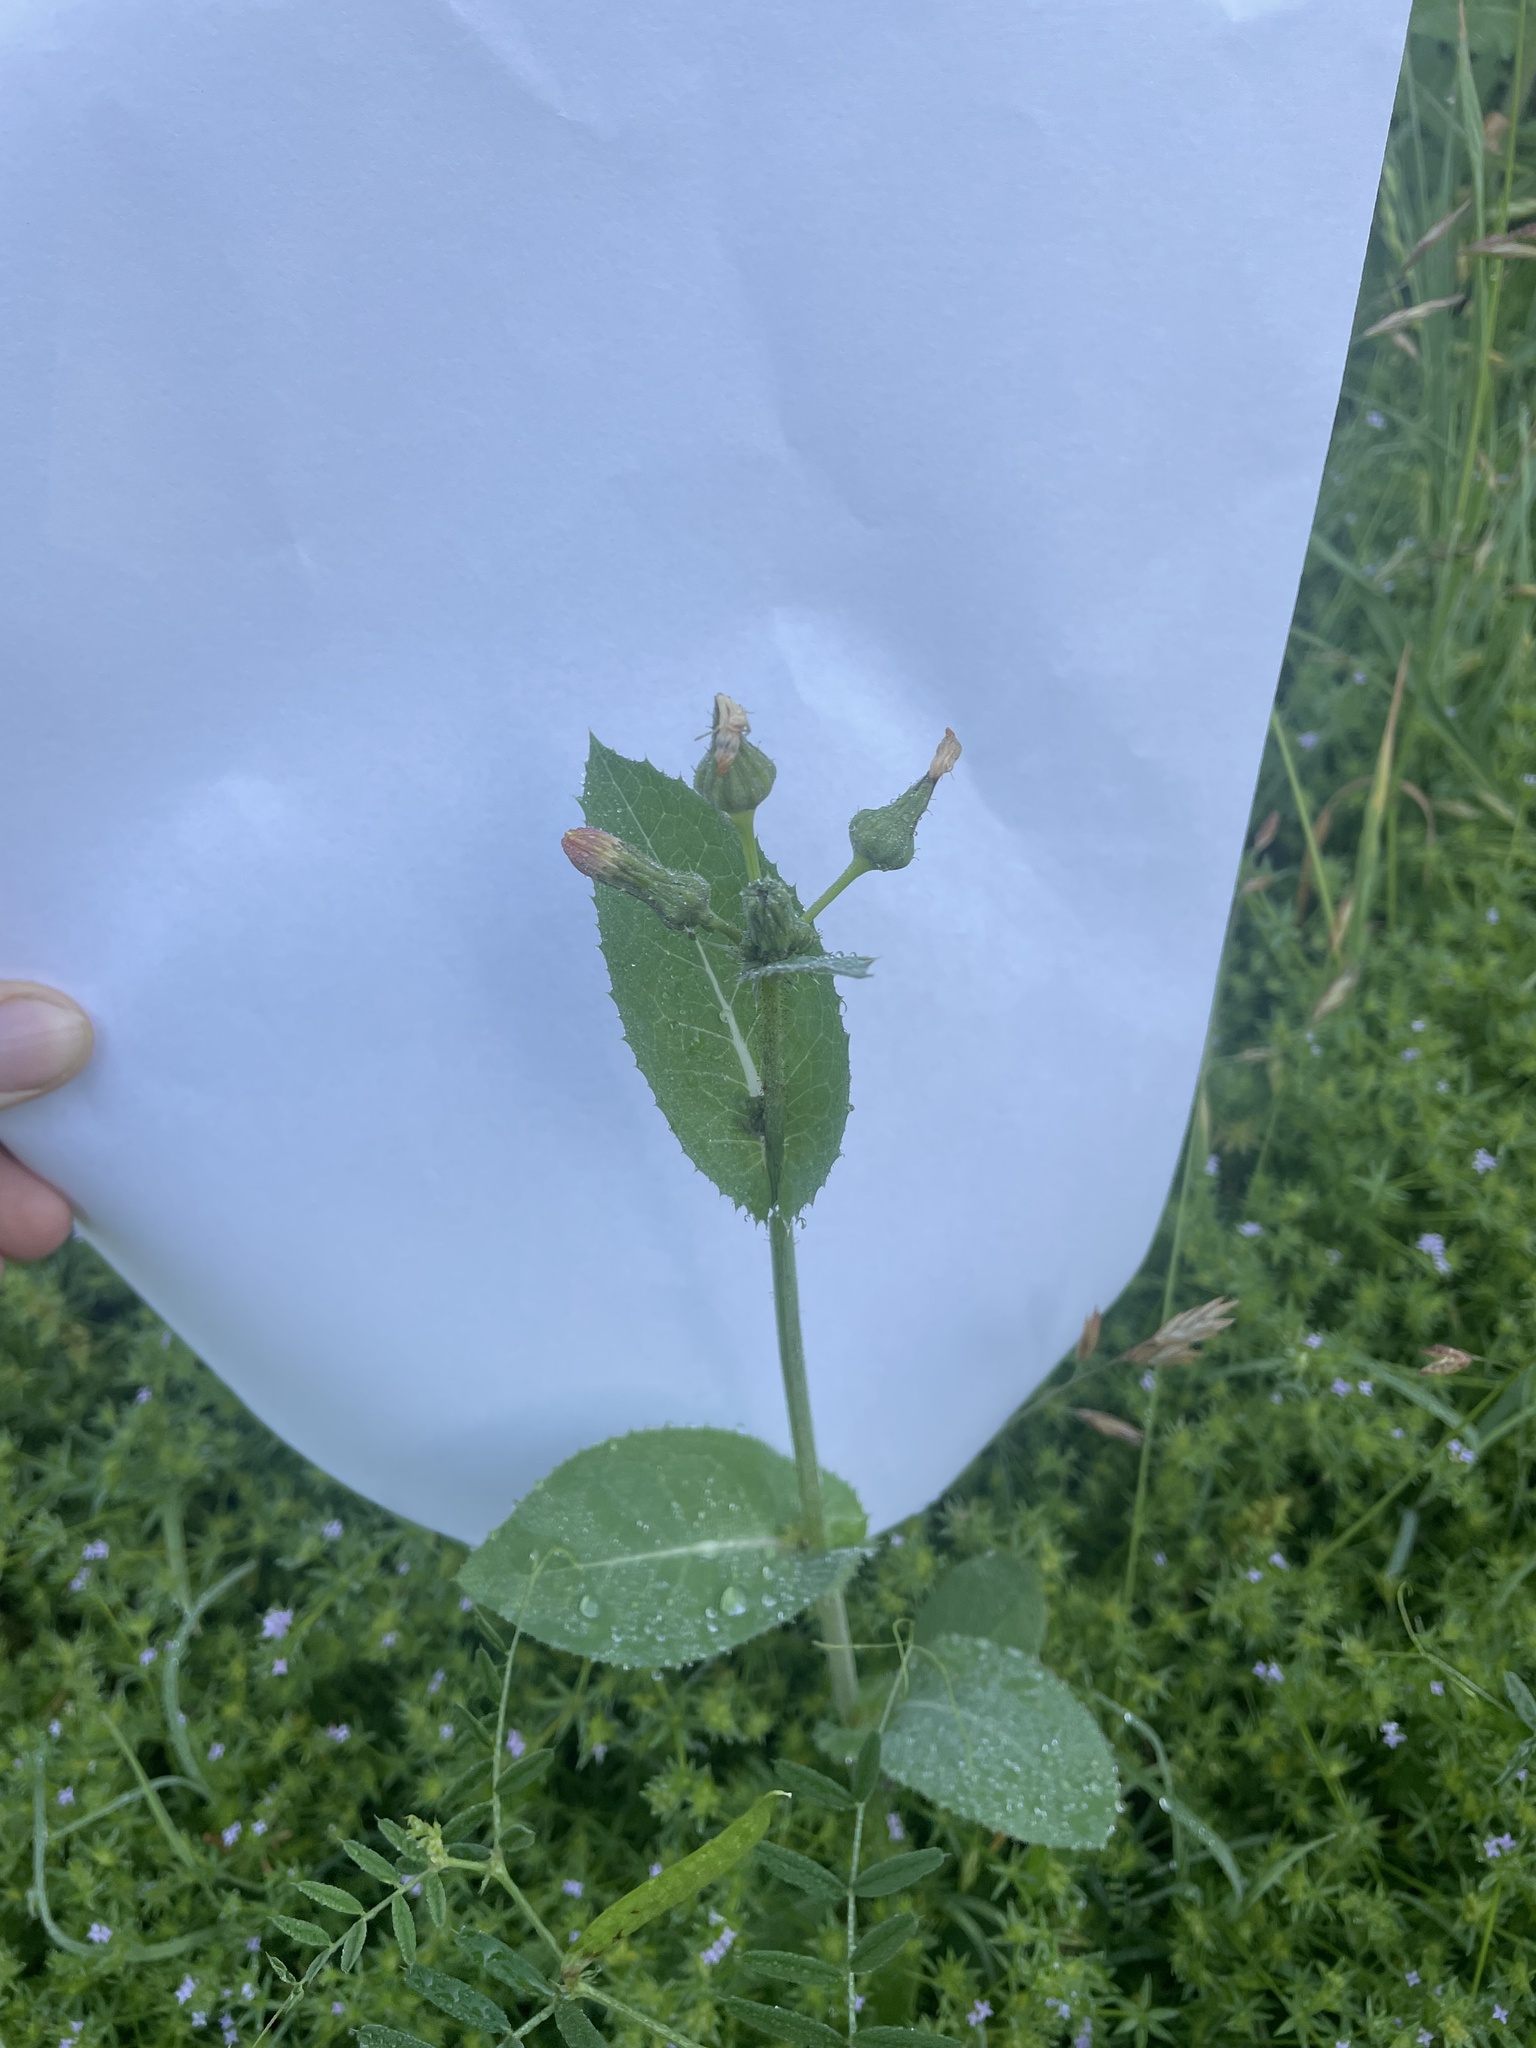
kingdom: Plantae
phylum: Tracheophyta
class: Magnoliopsida
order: Asterales
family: Asteraceae
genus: Sonchus
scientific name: Sonchus oleraceus
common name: Common sowthistle
